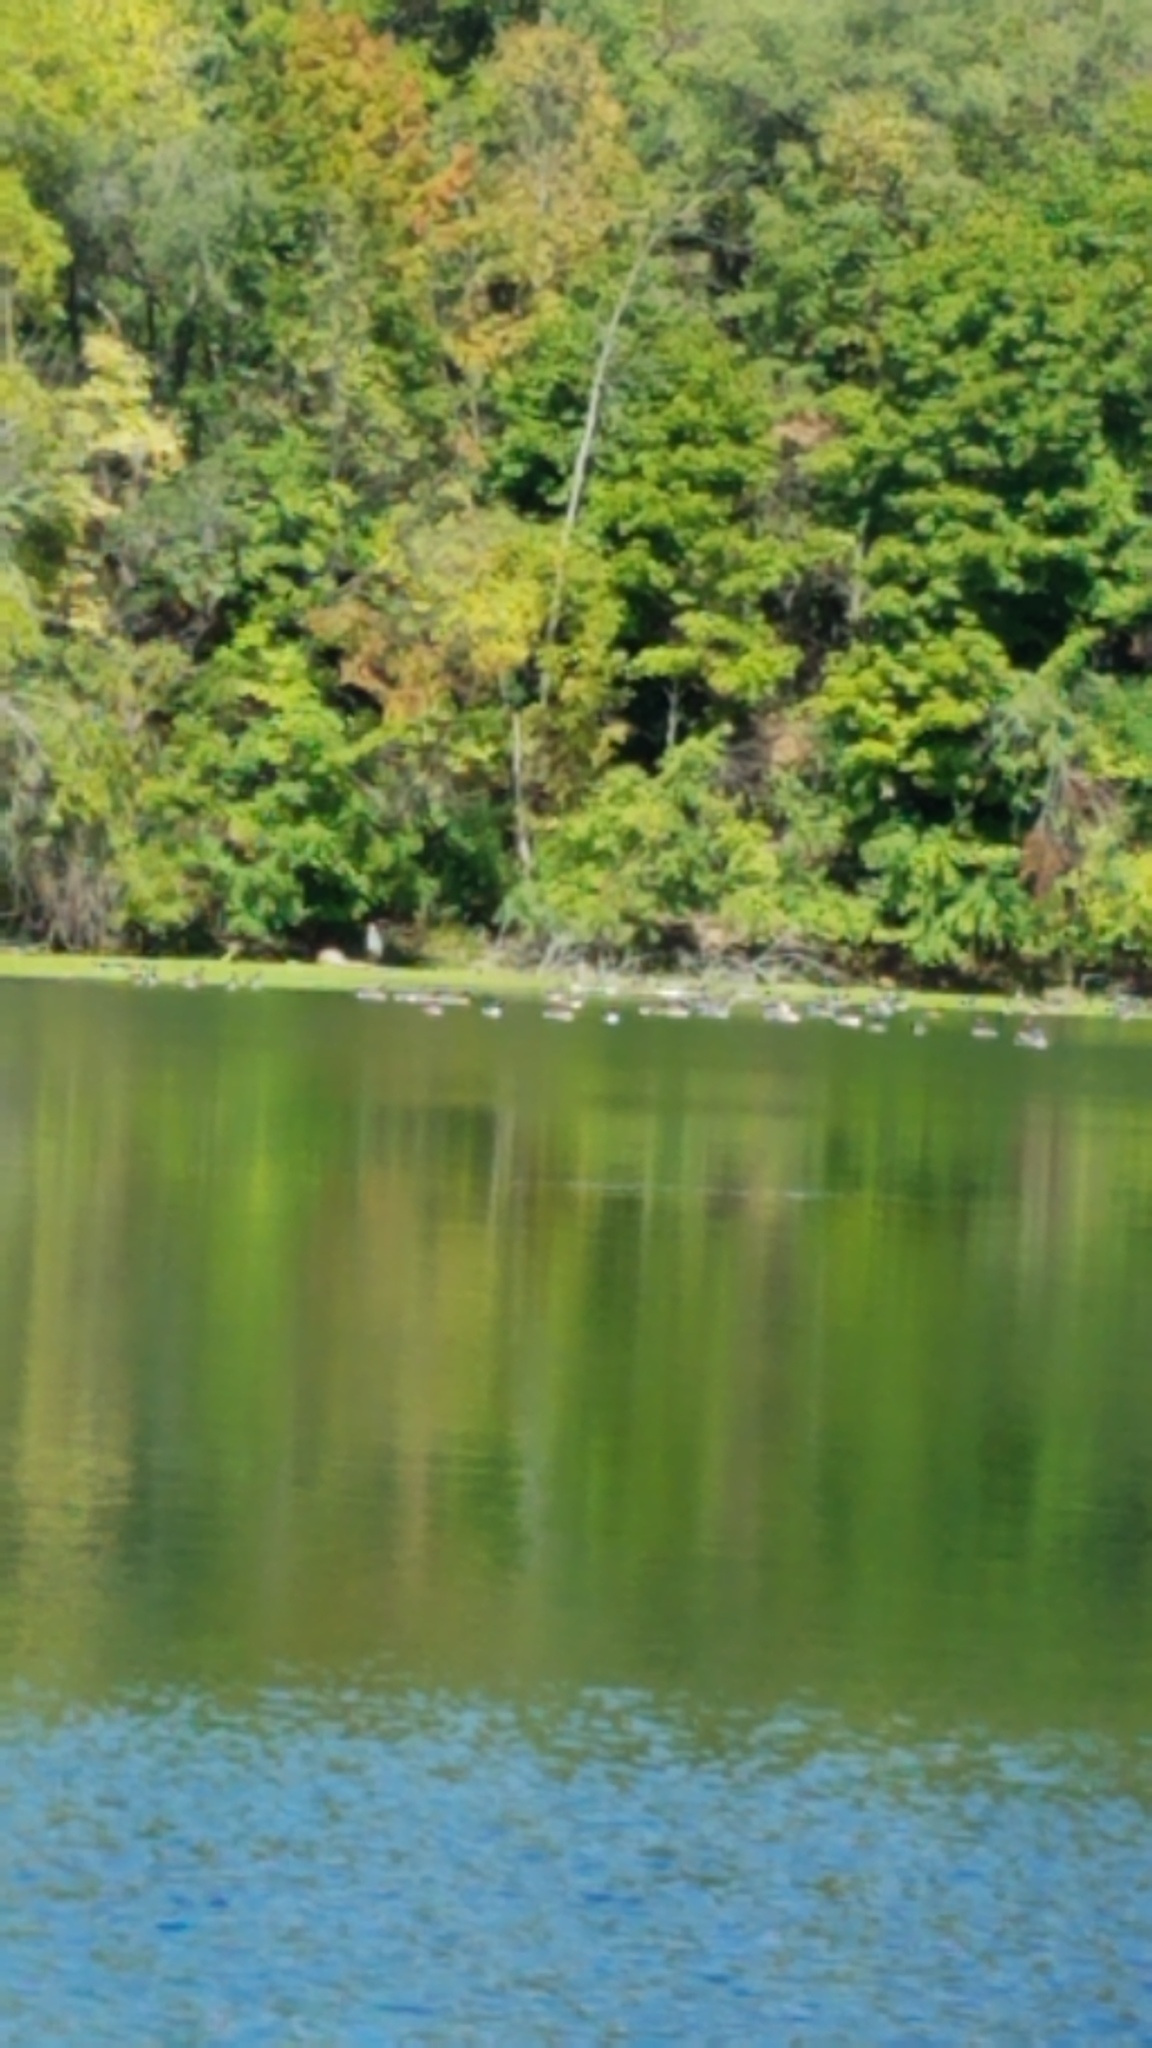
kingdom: Animalia
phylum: Chordata
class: Aves
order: Anseriformes
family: Anatidae
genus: Branta
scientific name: Branta canadensis
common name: Canada goose
